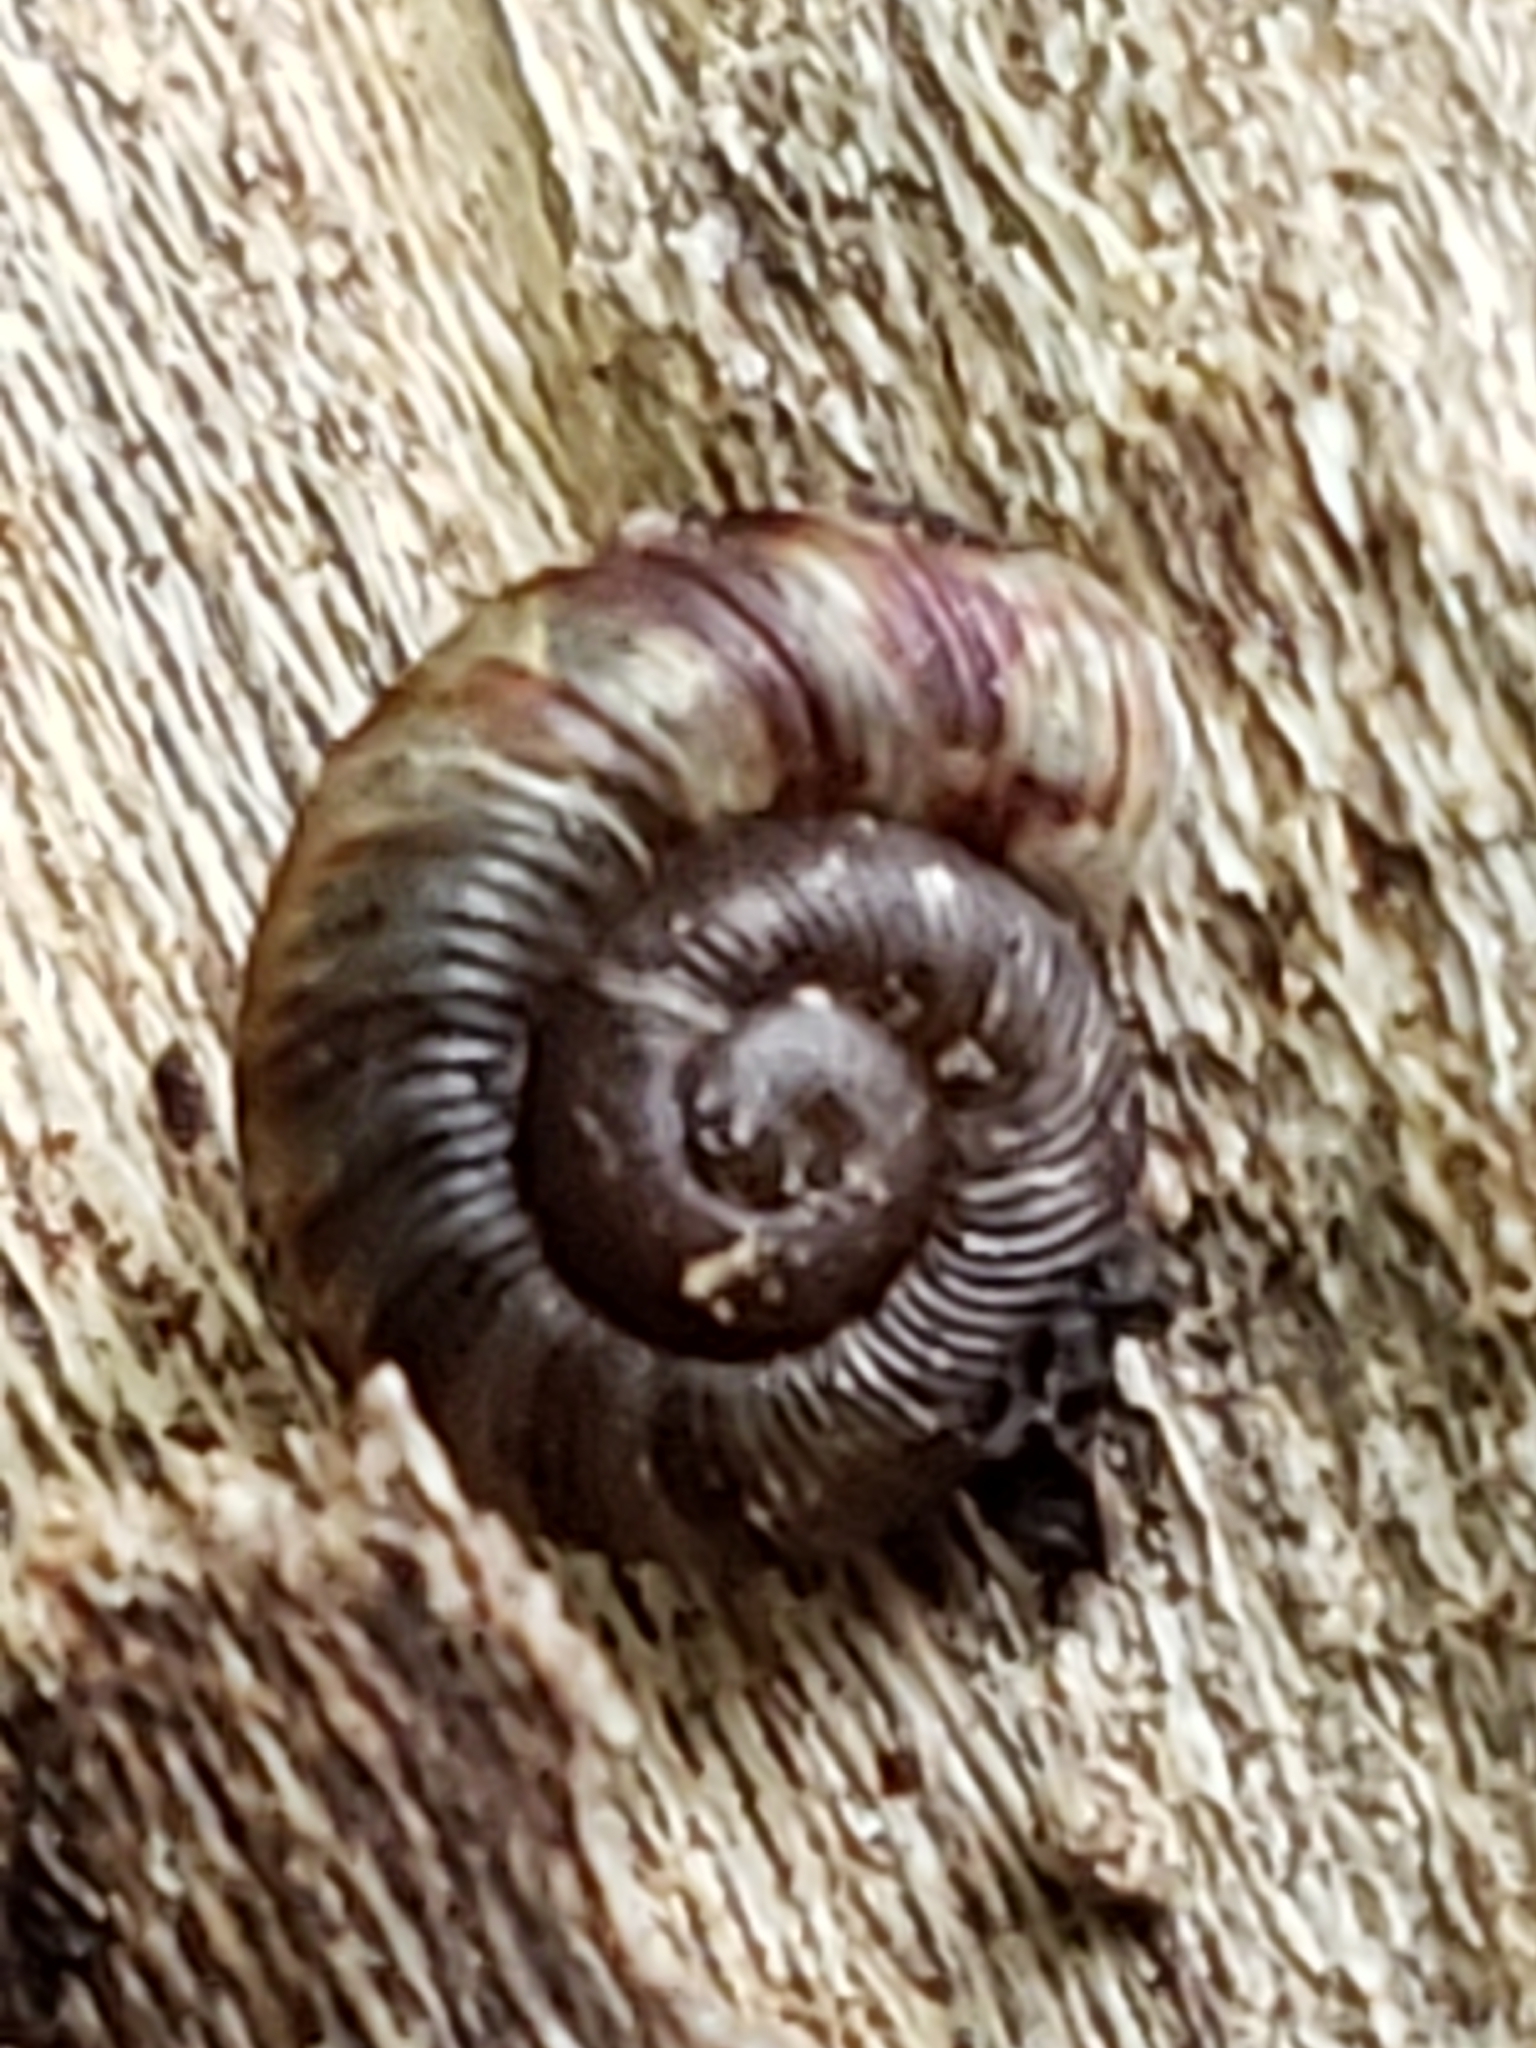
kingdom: Animalia
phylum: Mollusca
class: Gastropoda
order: Stylommatophora
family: Discidae
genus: Discus
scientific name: Discus rotundatus
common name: Rounded snail
